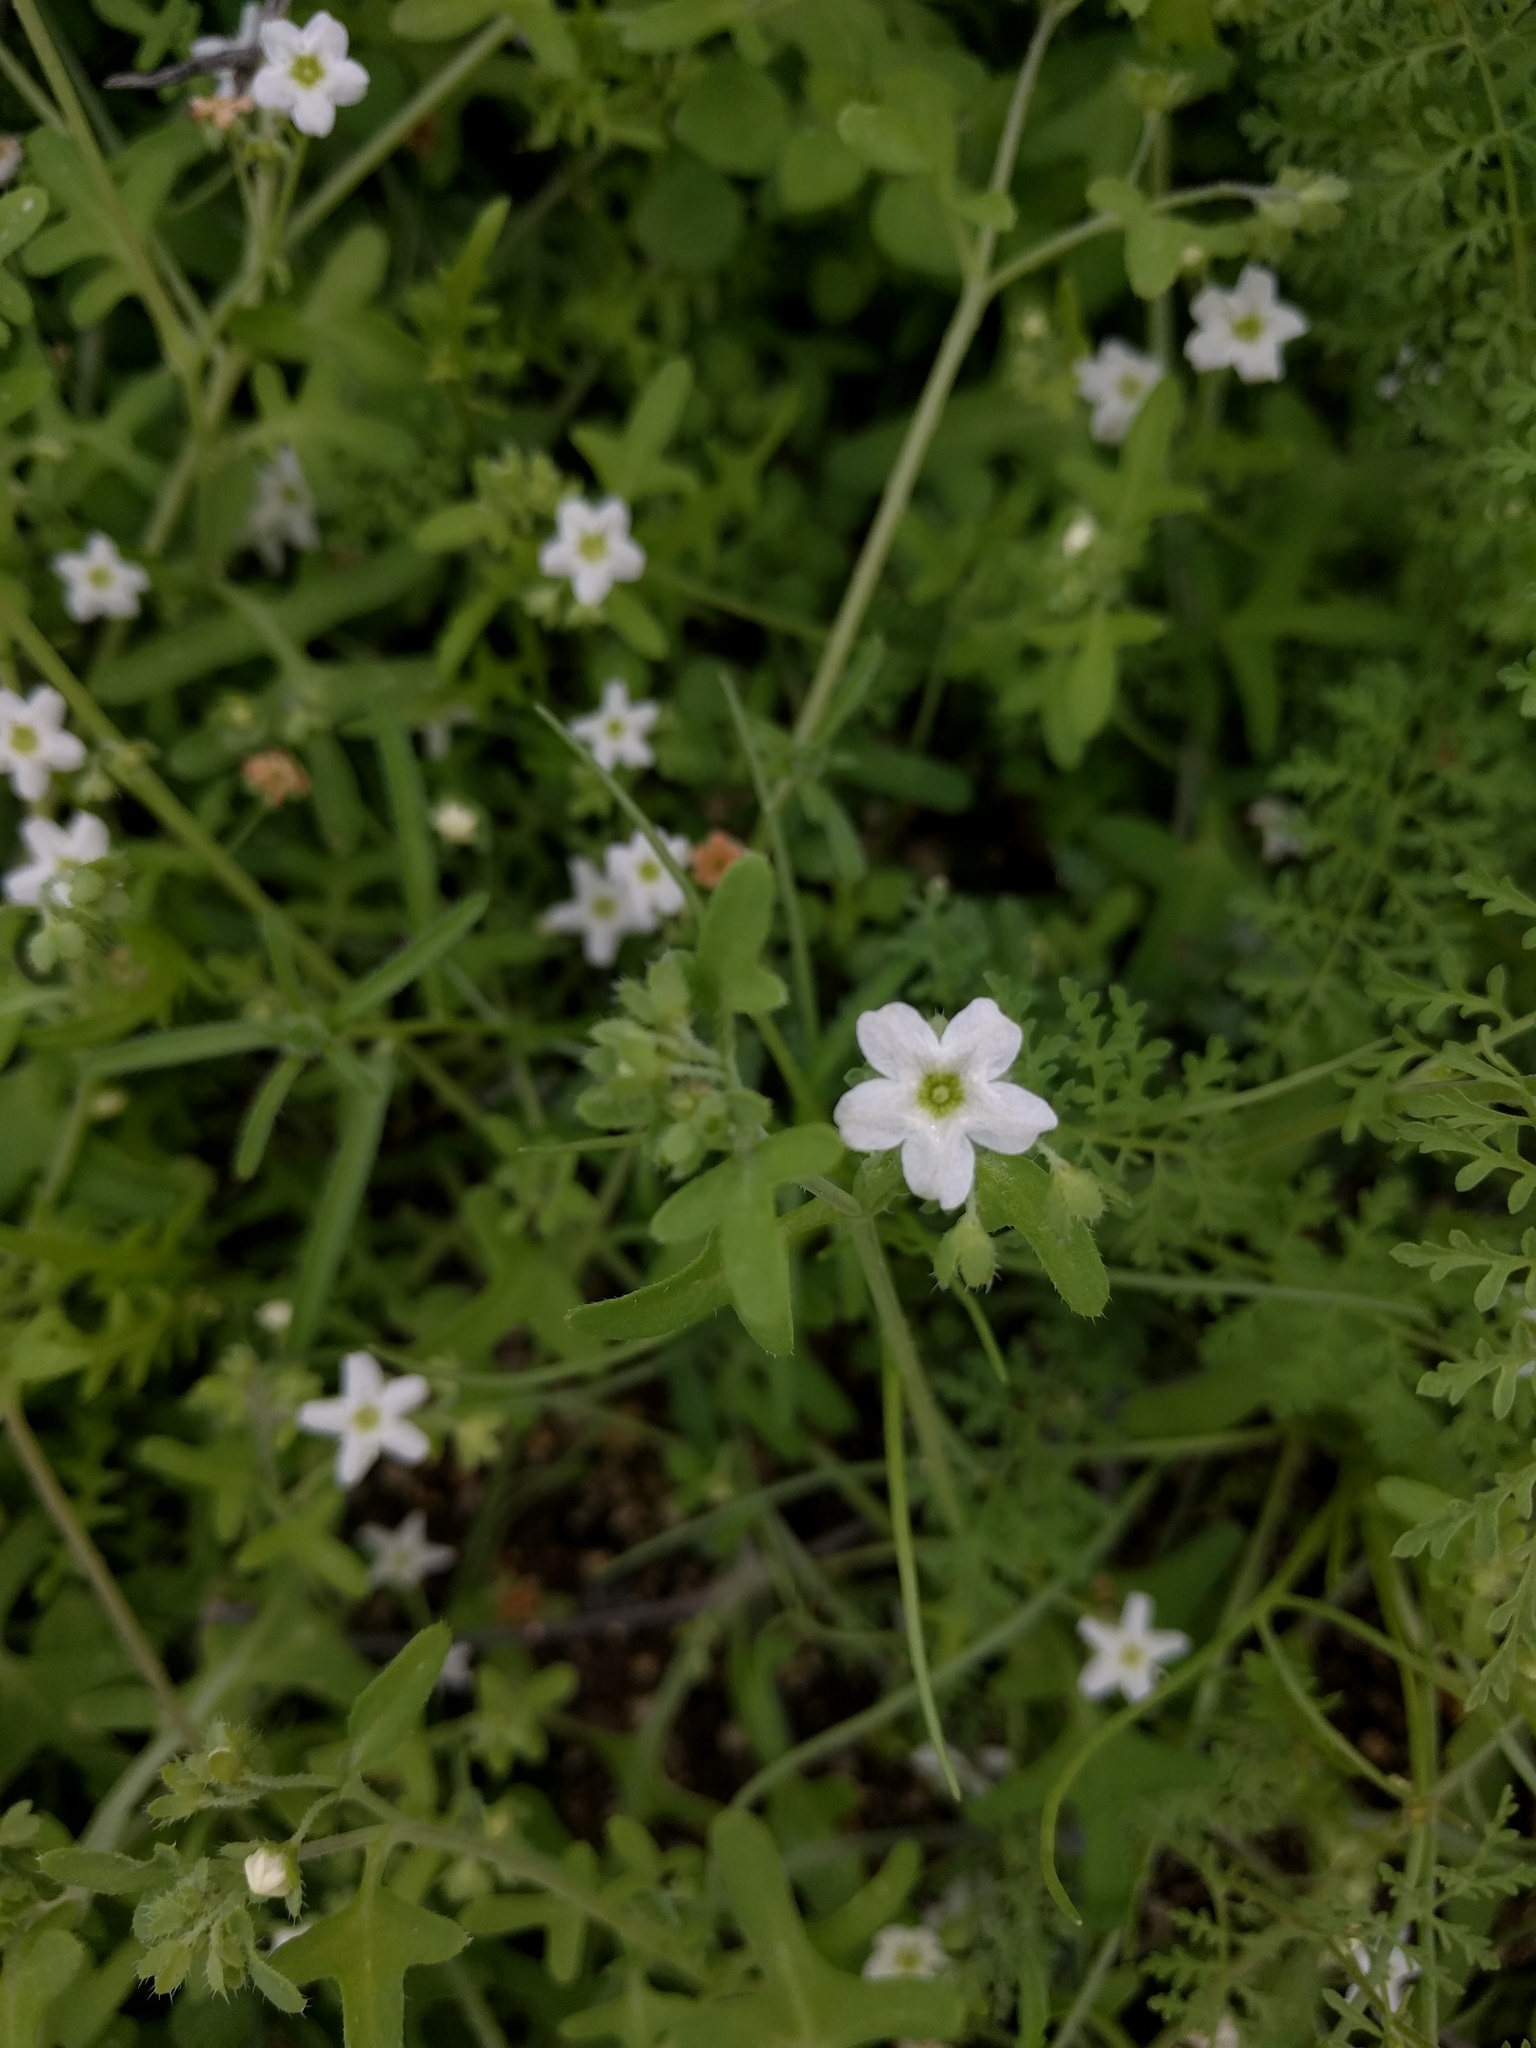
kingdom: Plantae
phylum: Tracheophyta
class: Magnoliopsida
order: Boraginales
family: Hydrophyllaceae
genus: Pholistoma
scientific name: Pholistoma membranaceum
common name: White fiesta-flower
